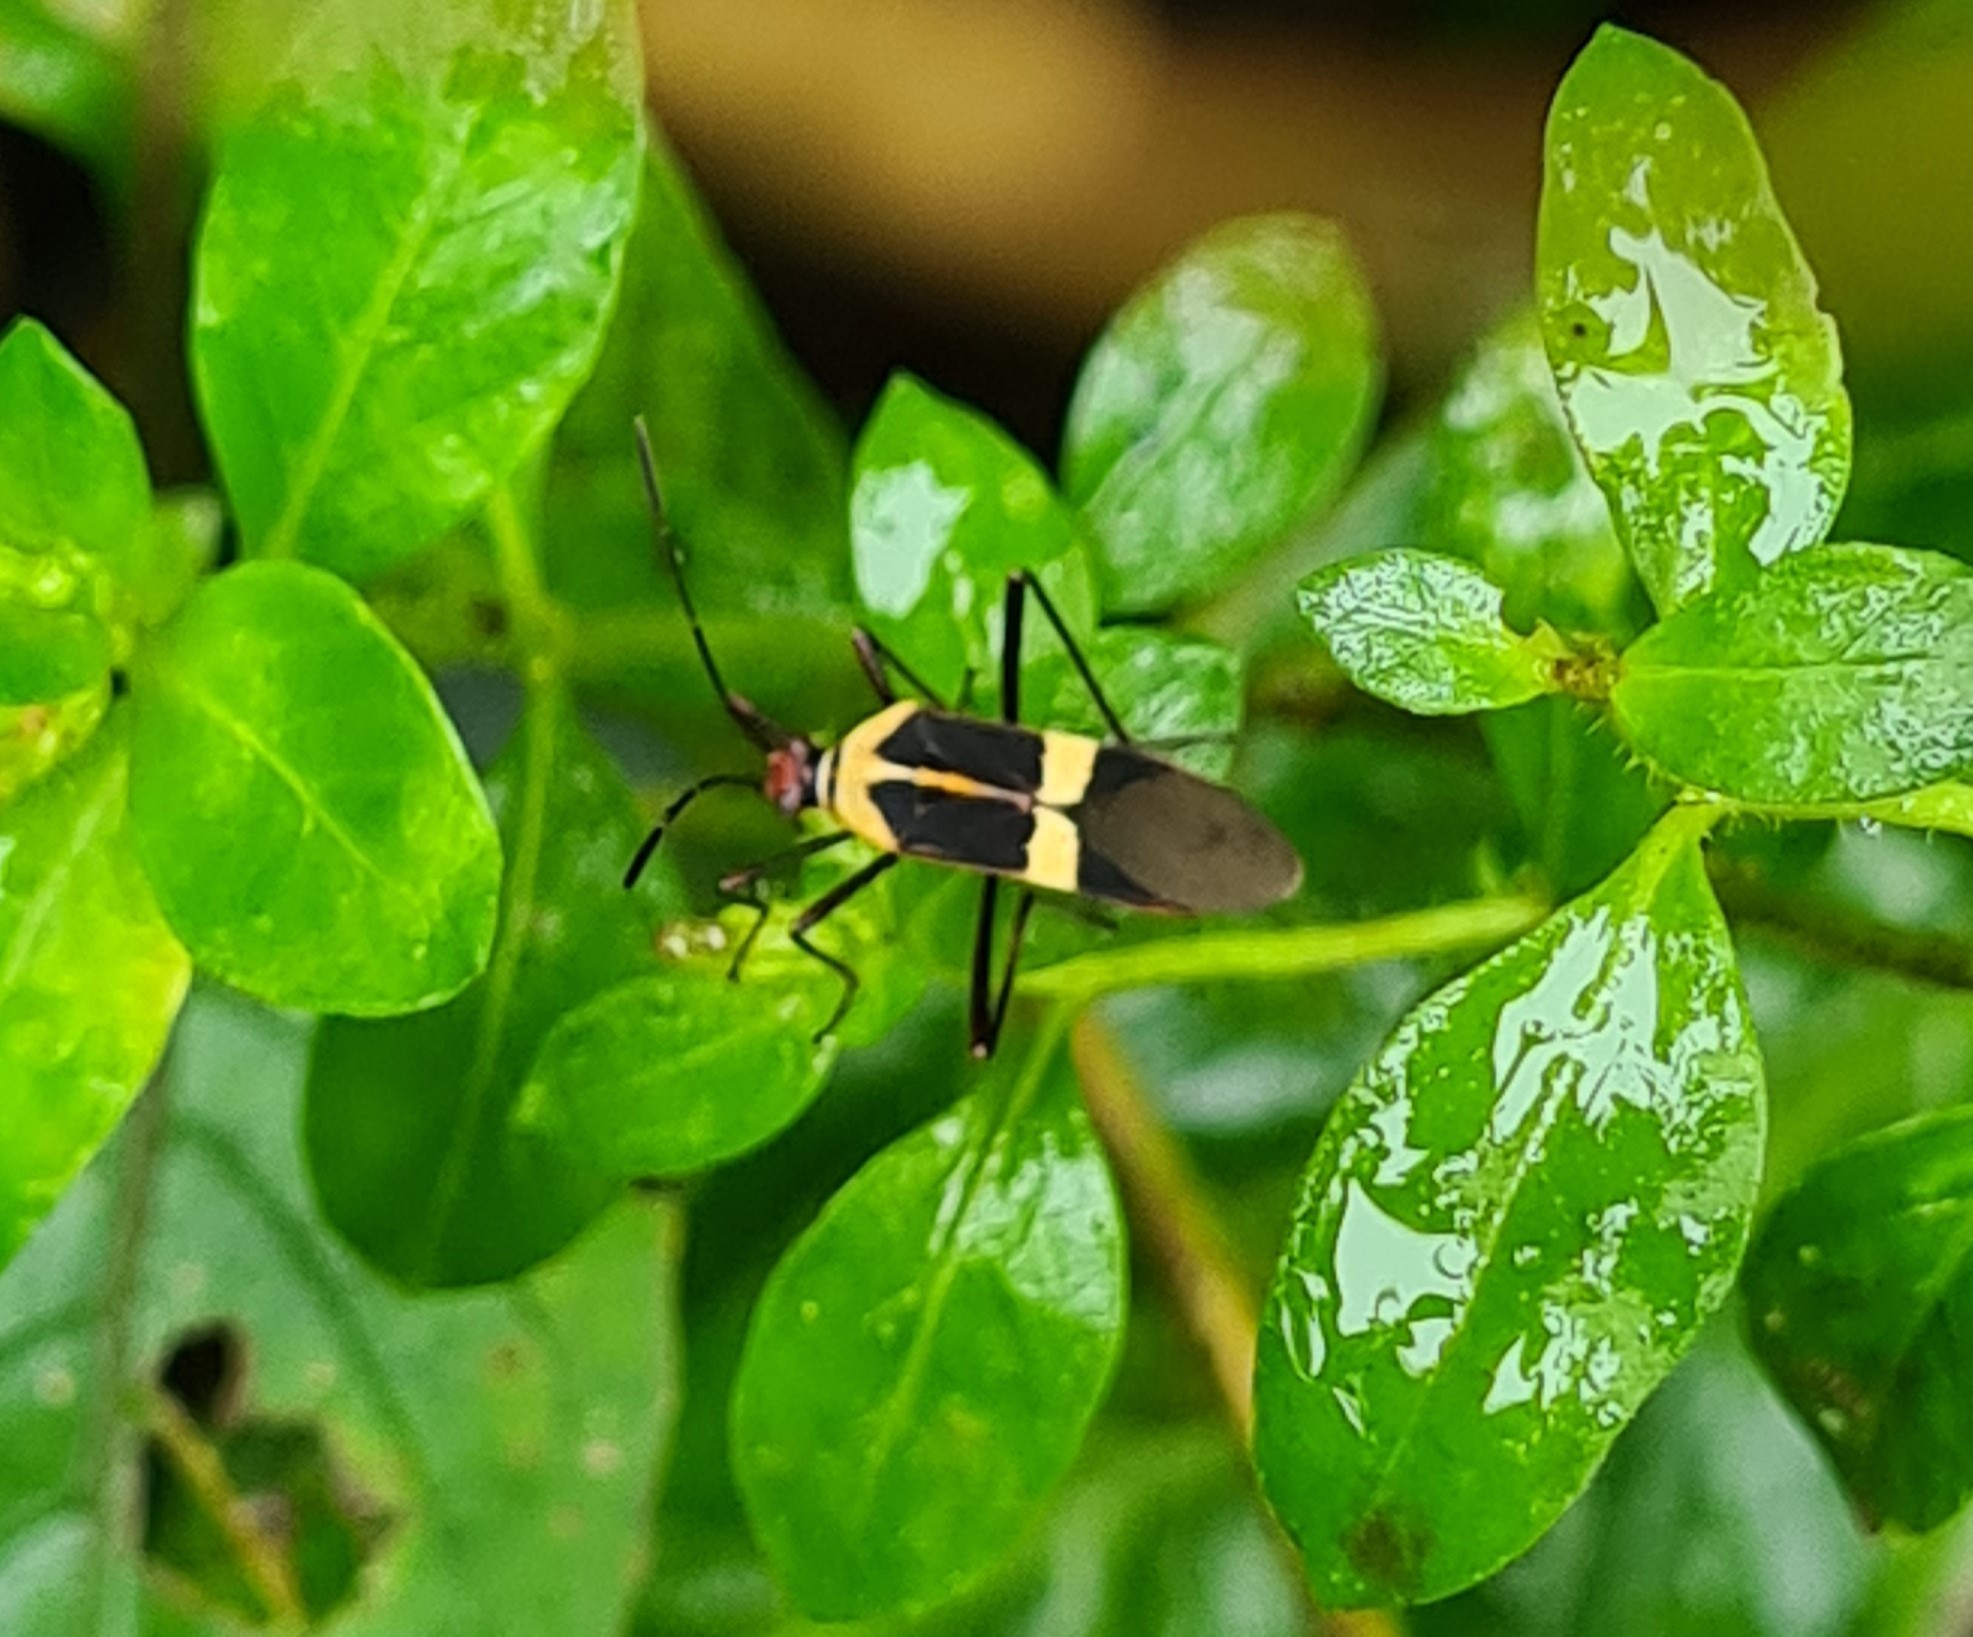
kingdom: Animalia
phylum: Arthropoda
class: Insecta
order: Hemiptera
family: Coreidae
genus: Hypselonotus
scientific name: Hypselonotus interruptus
